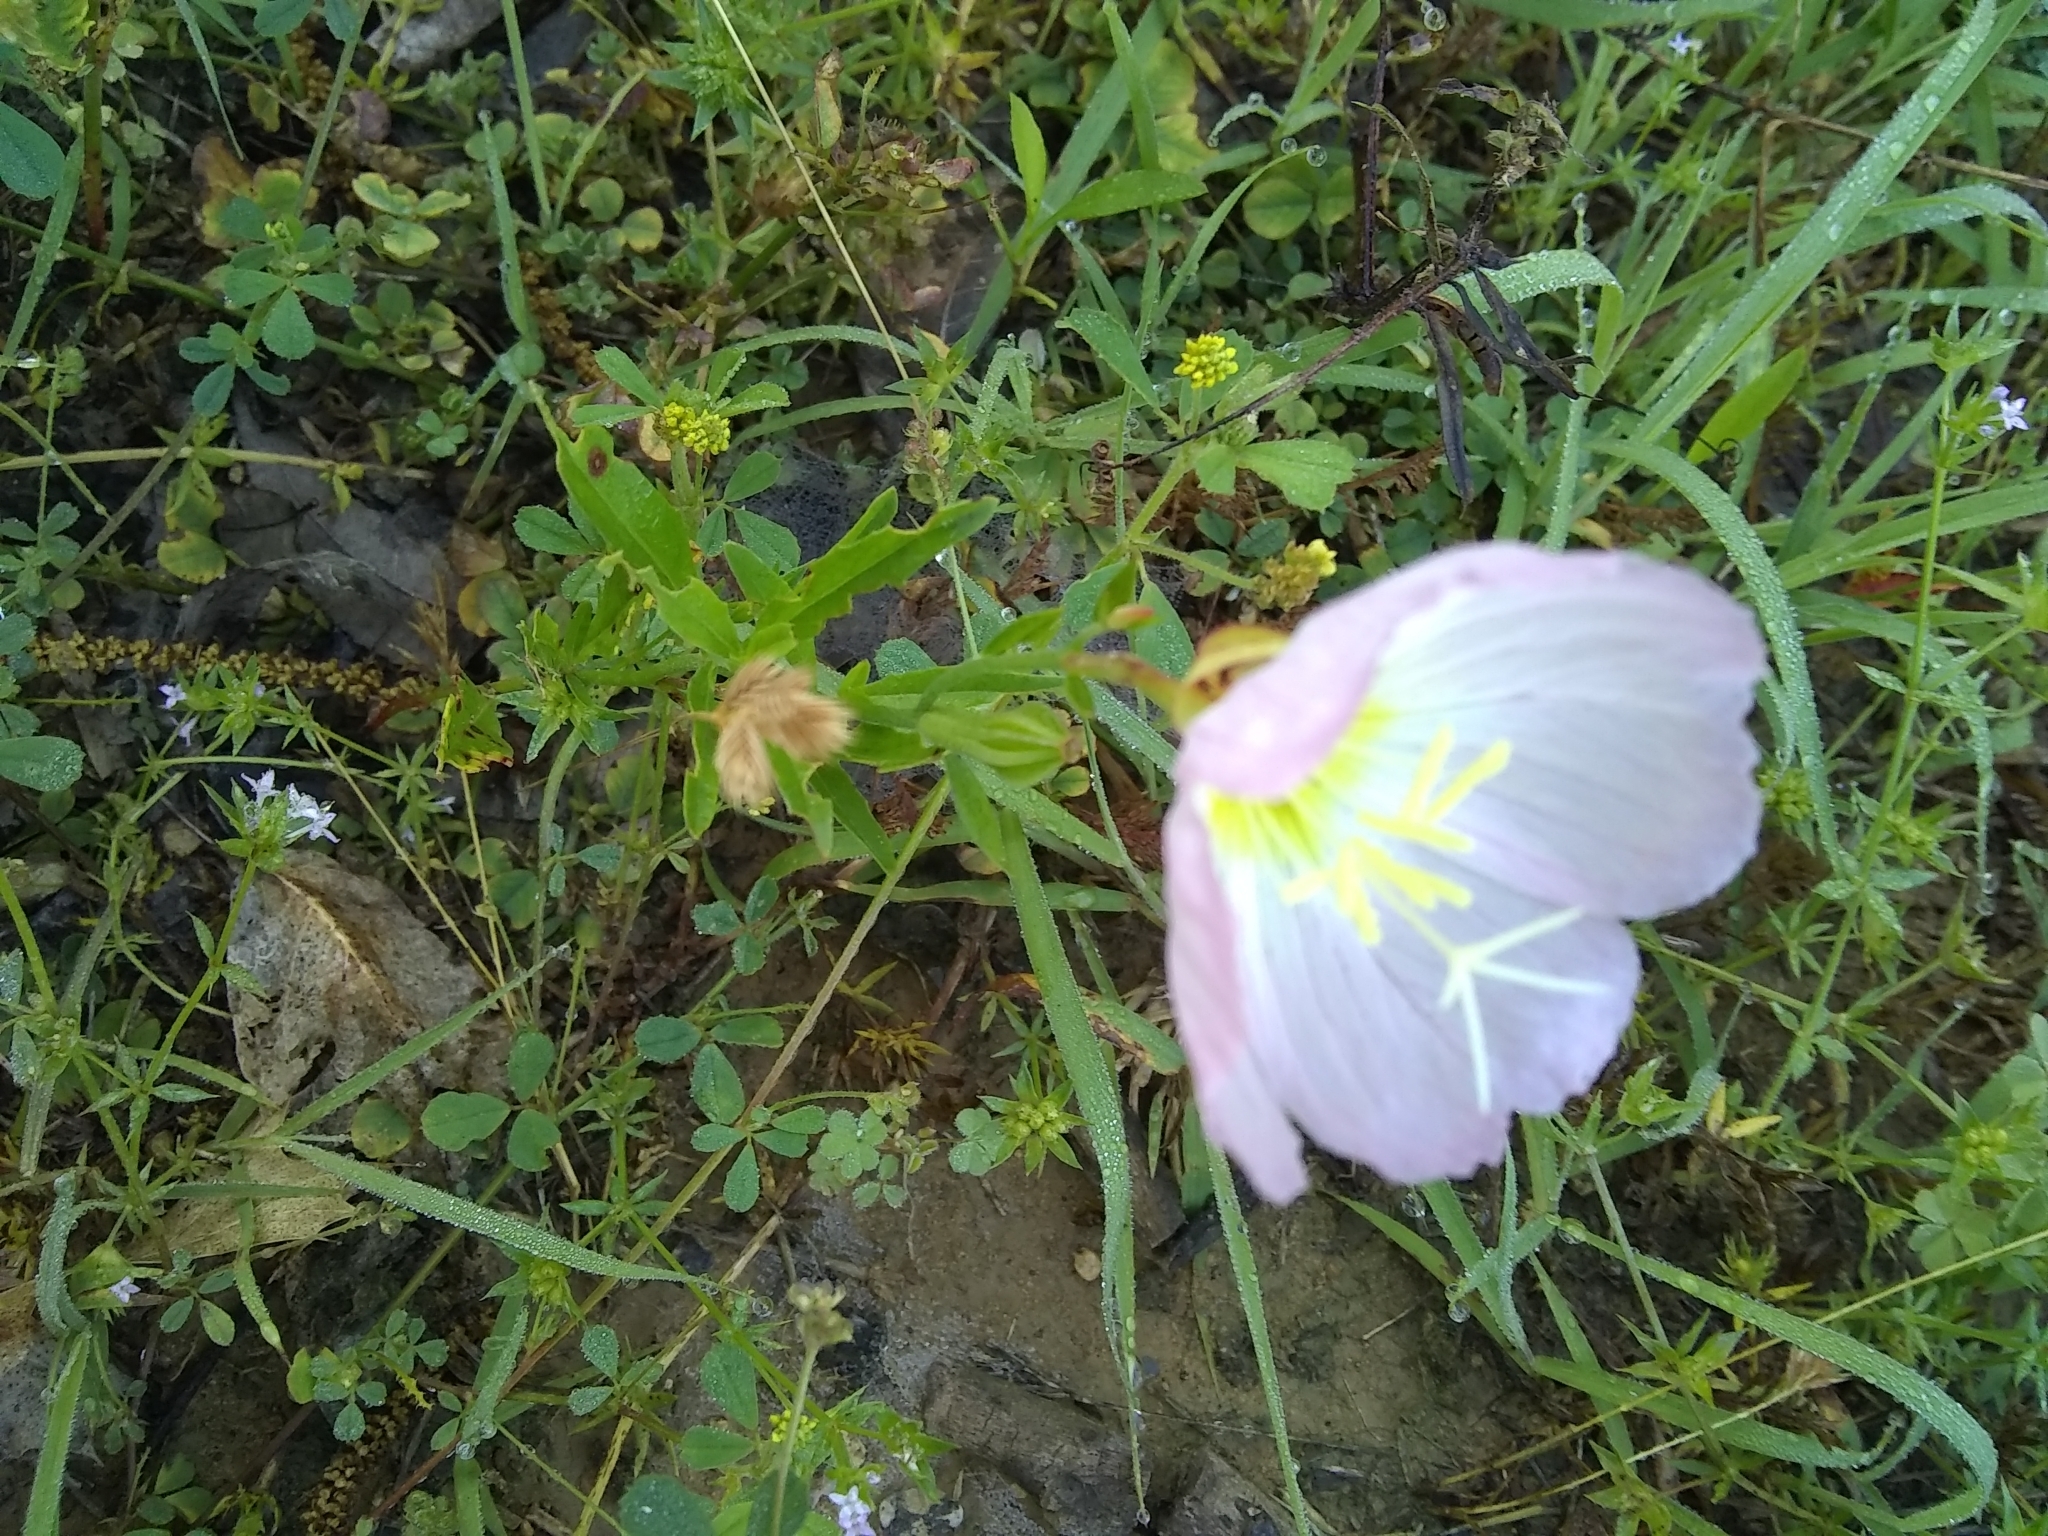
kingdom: Plantae
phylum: Tracheophyta
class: Magnoliopsida
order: Myrtales
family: Onagraceae
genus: Oenothera
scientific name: Oenothera speciosa
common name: White evening-primrose
